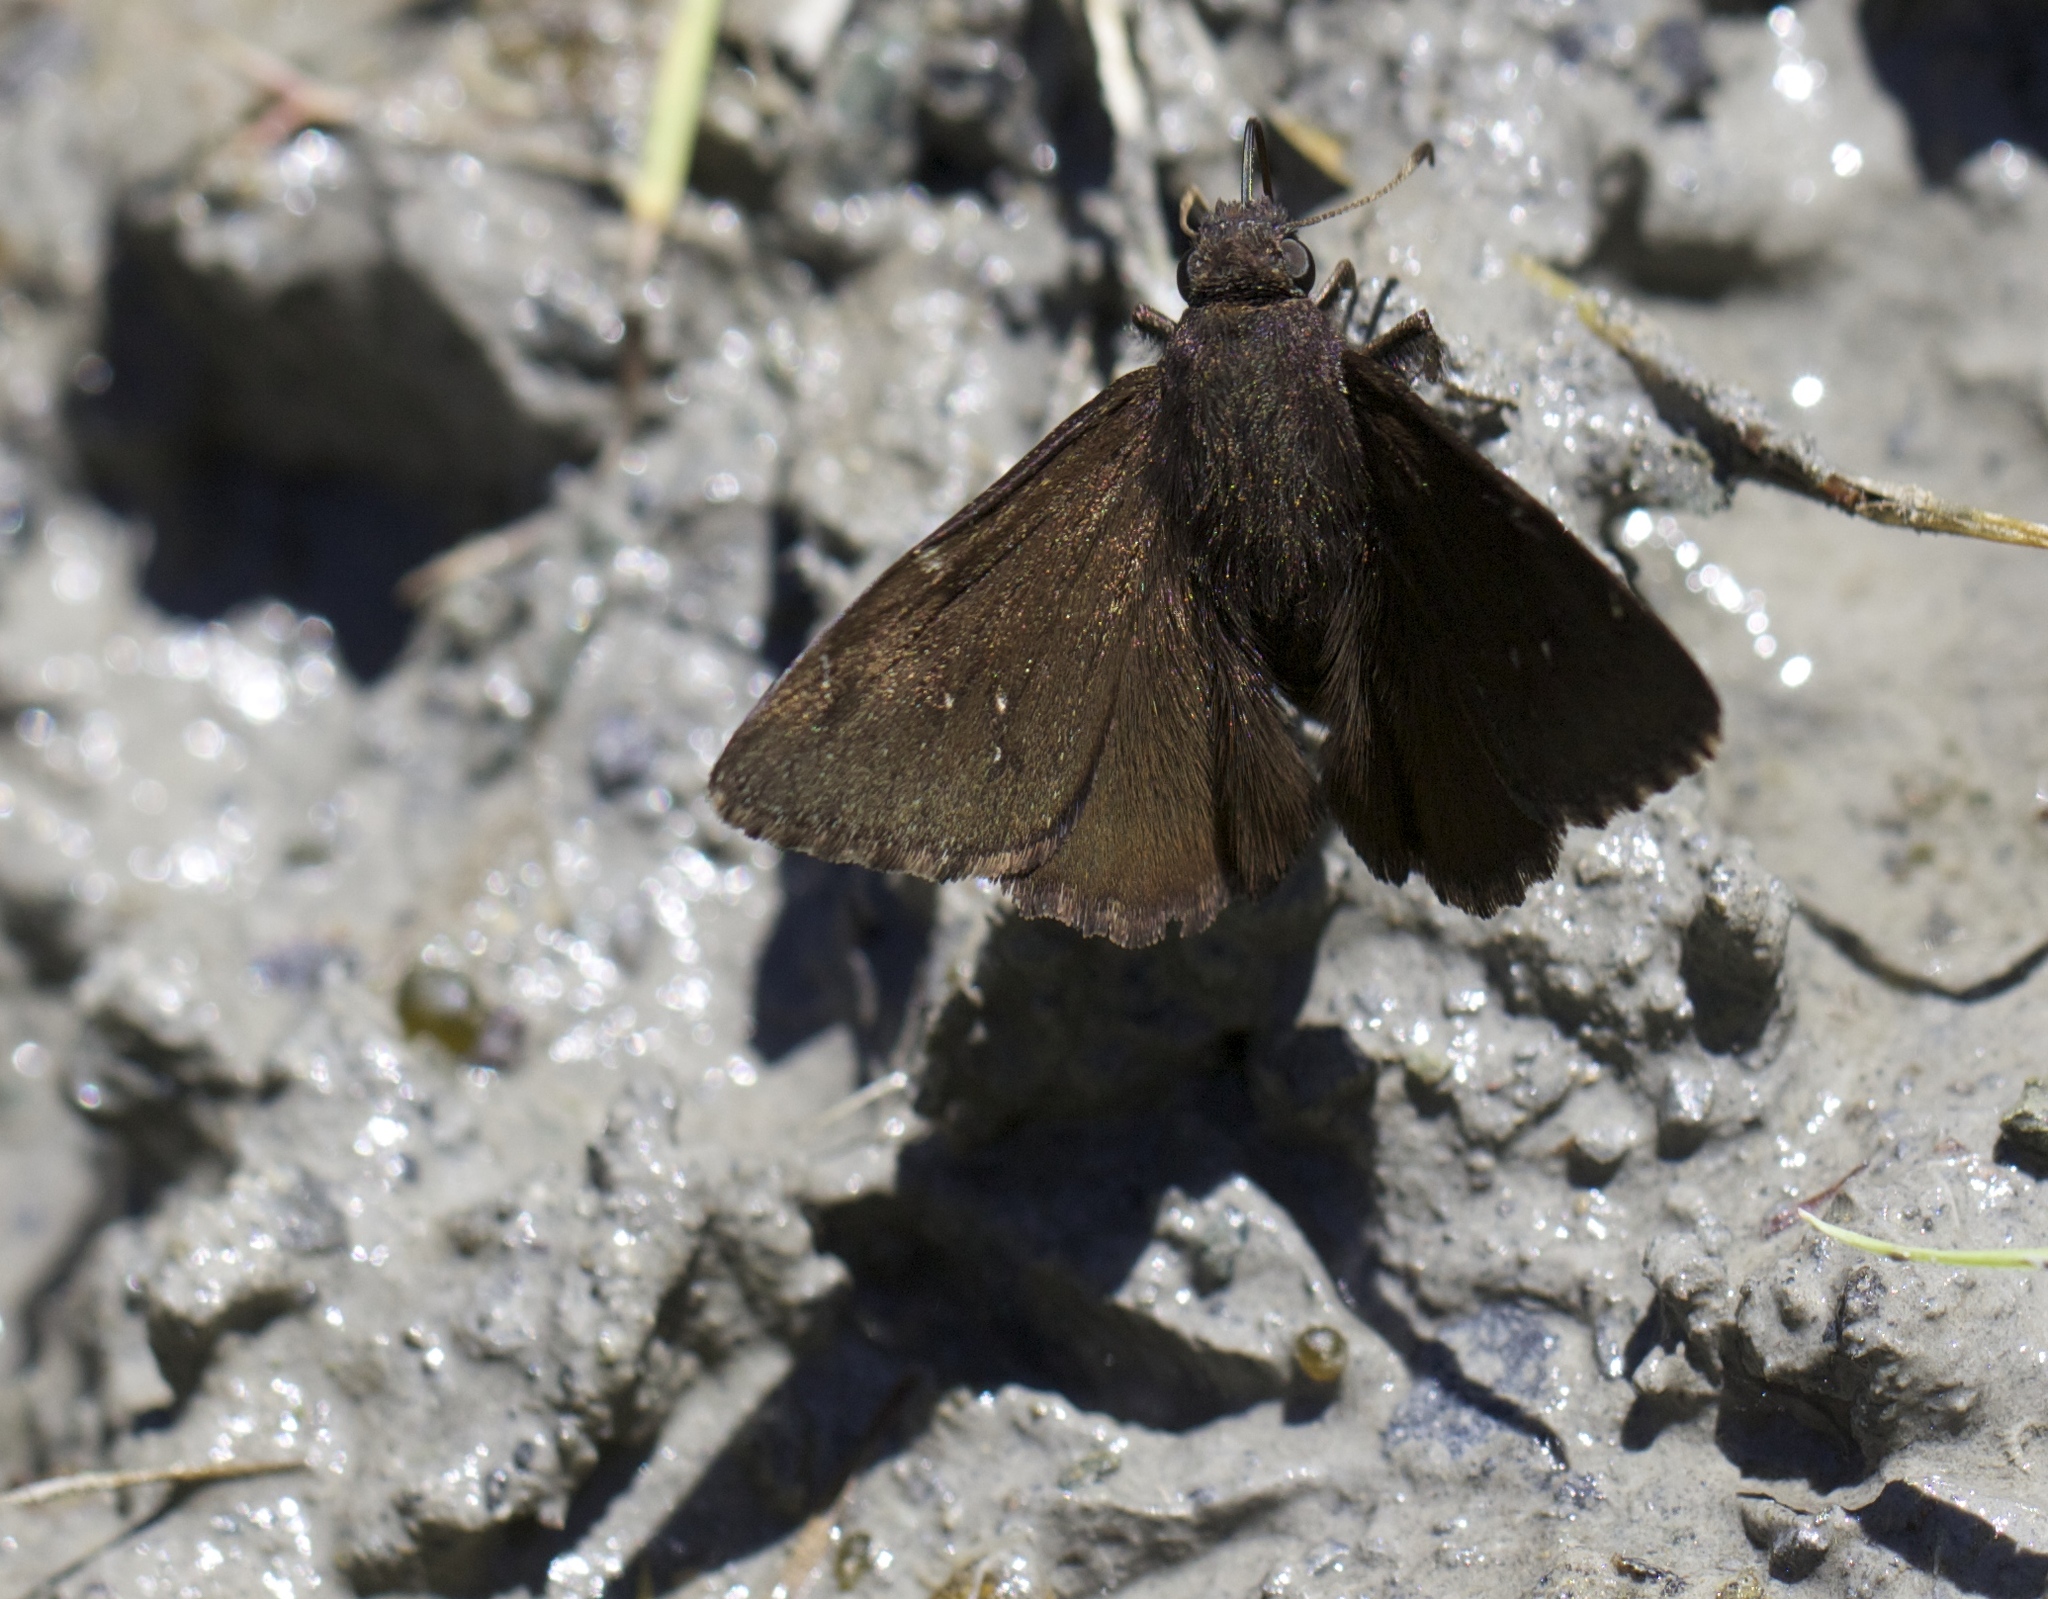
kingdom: Animalia
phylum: Arthropoda
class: Insecta
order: Lepidoptera
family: Hesperiidae
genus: Thorybes
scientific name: Thorybes pylades
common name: Northern cloudywing
